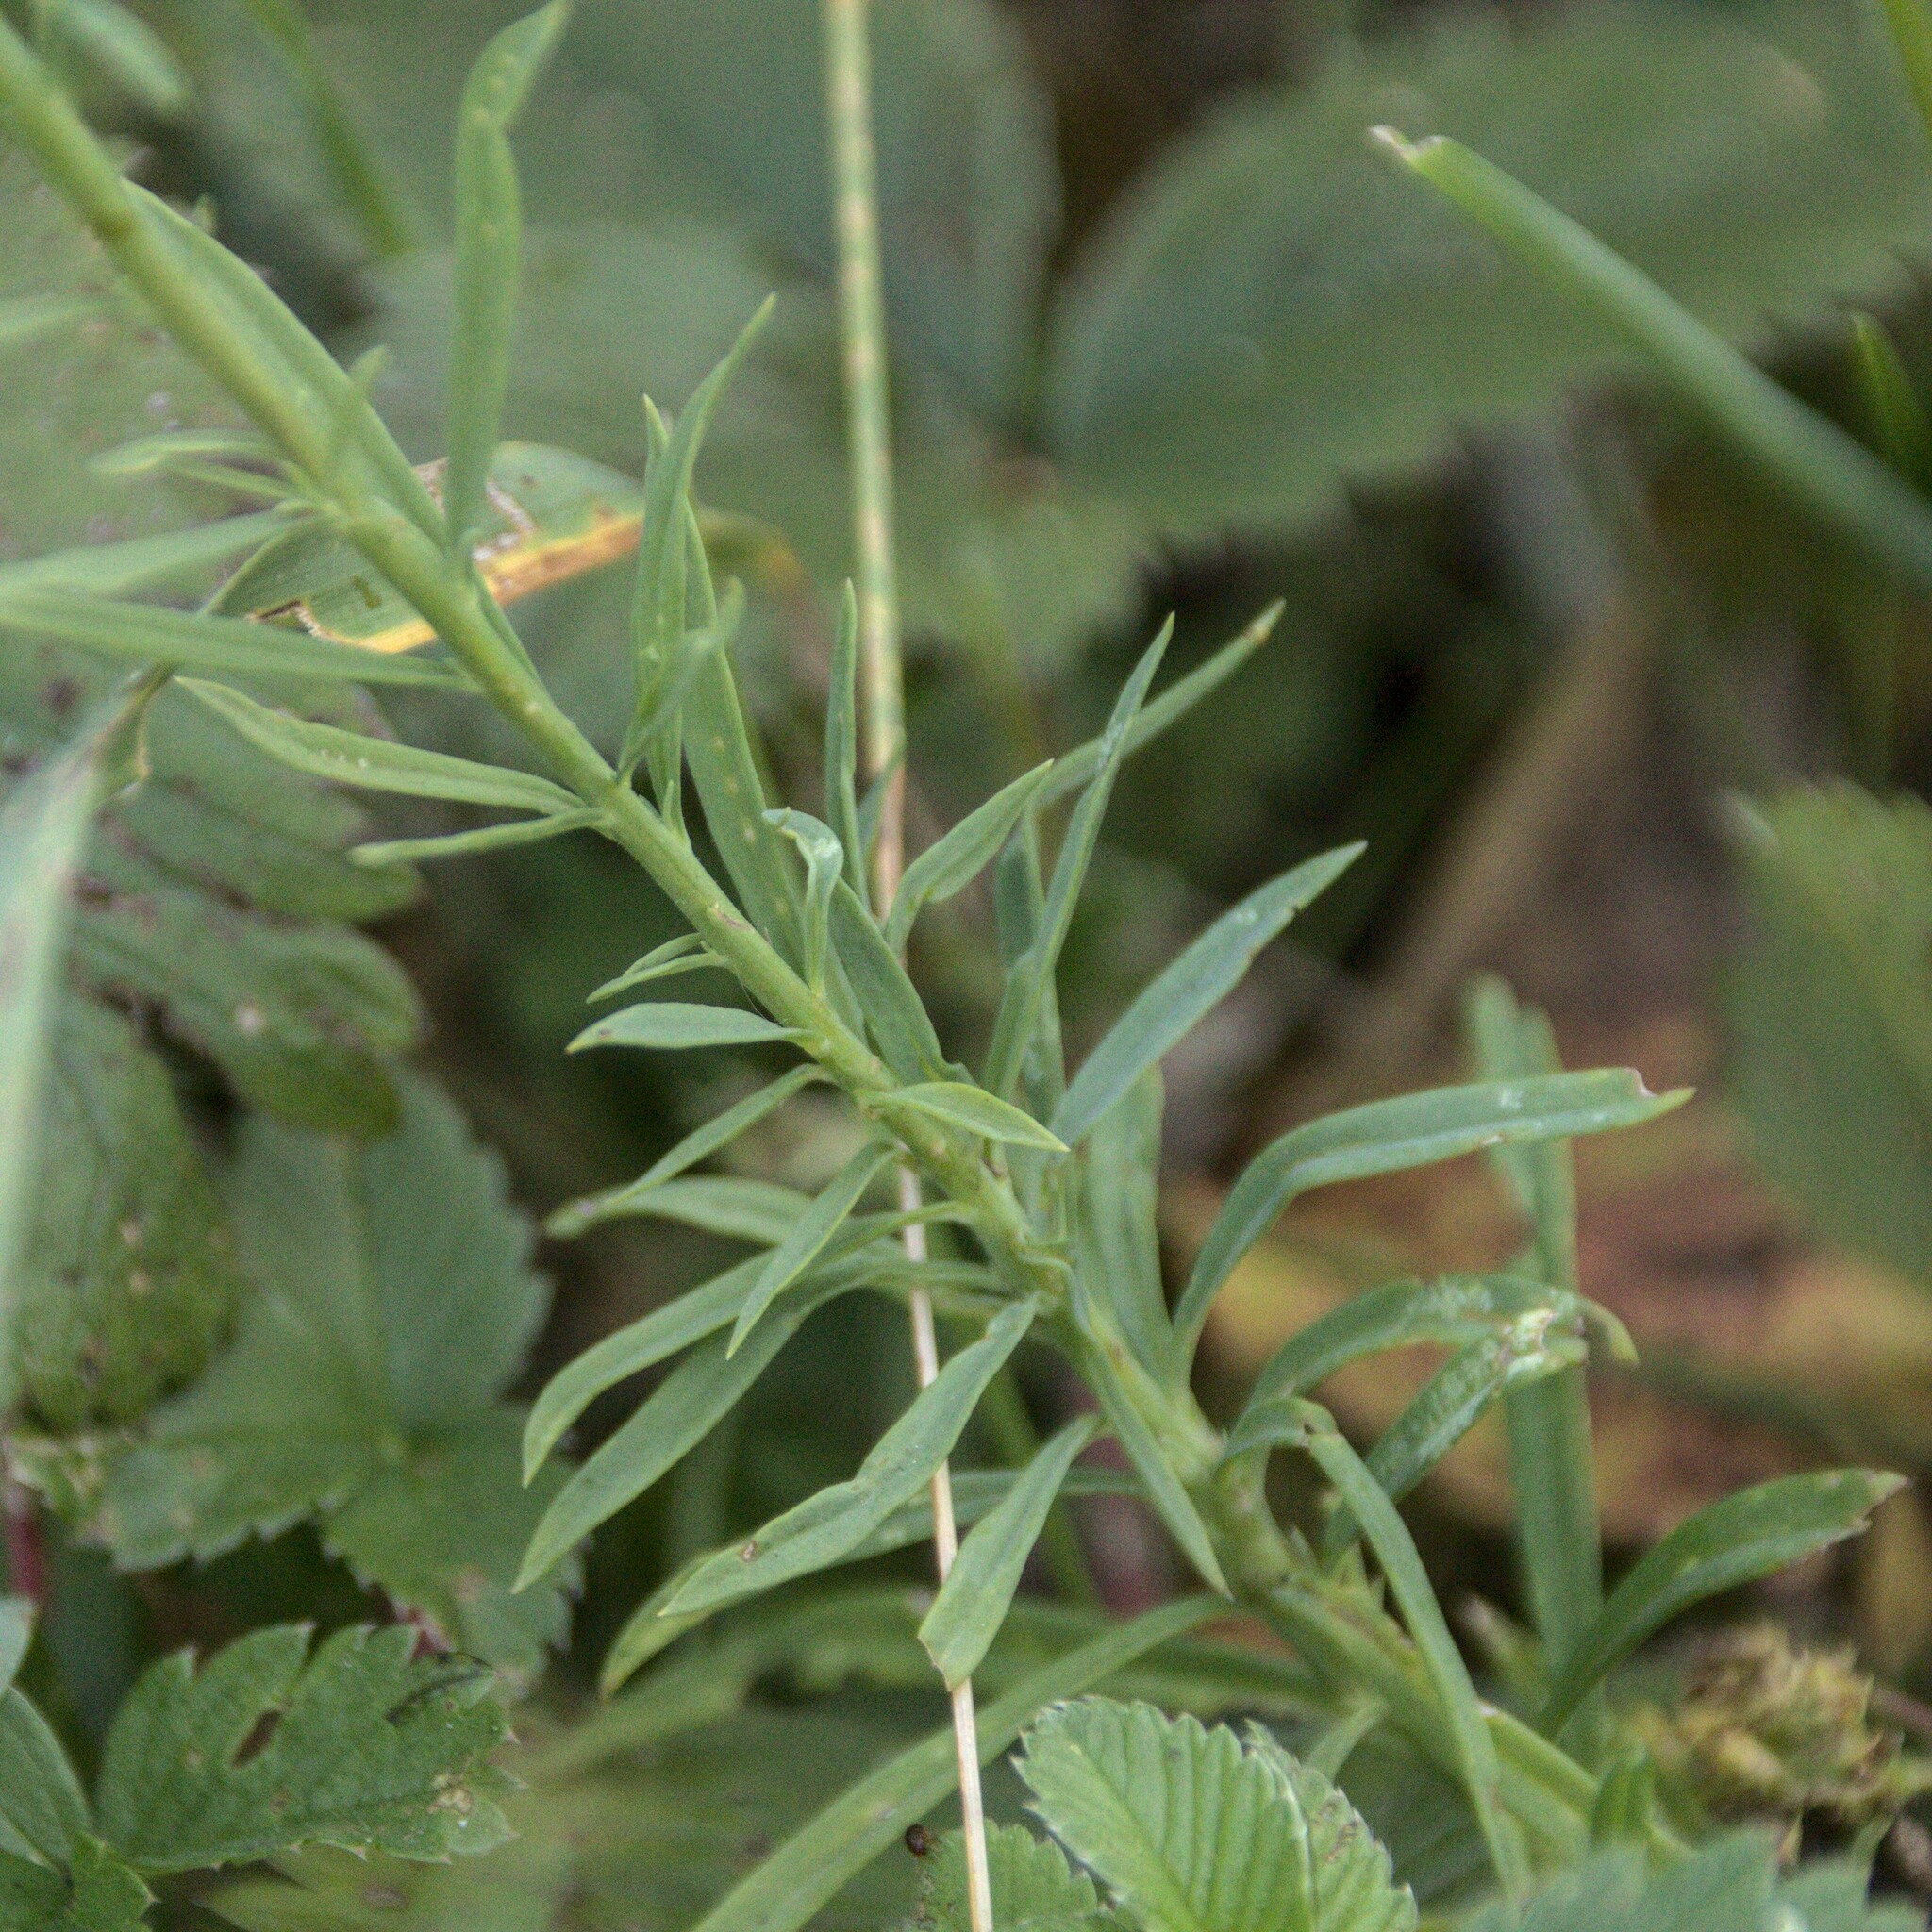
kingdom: Plantae
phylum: Tracheophyta
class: Magnoliopsida
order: Lamiales
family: Plantaginaceae
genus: Linaria
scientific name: Linaria vulgaris
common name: Butter and eggs
